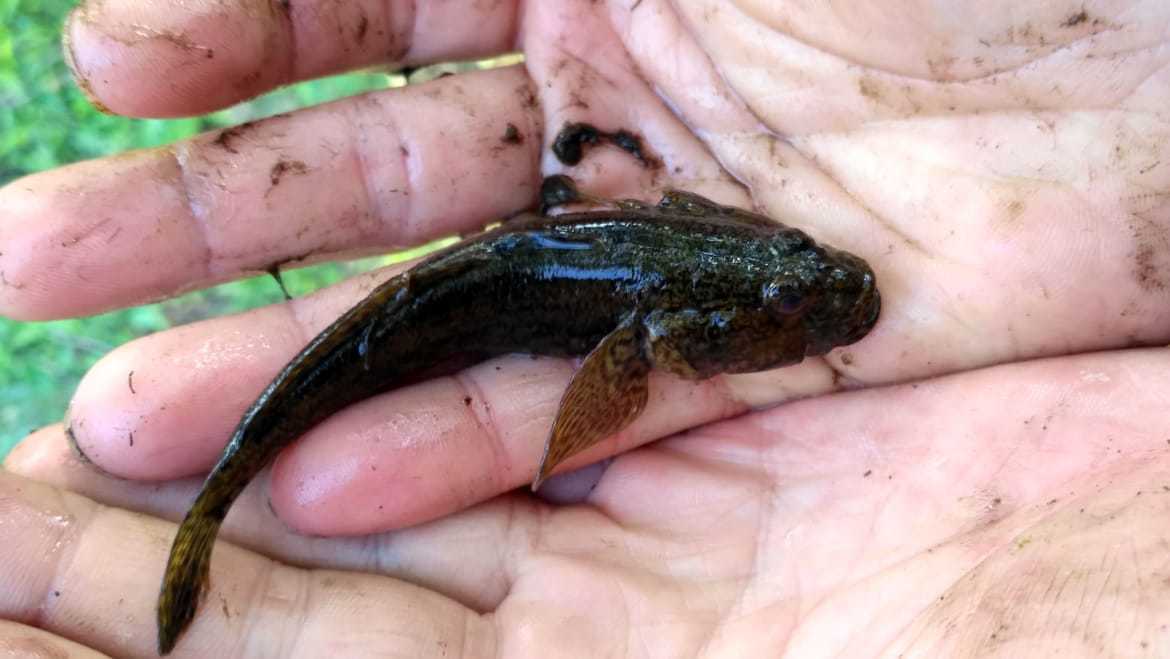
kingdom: Animalia
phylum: Chordata
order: Perciformes
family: Gobiidae
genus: Ponticola
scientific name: Ponticola kessleri
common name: Bighead goby
